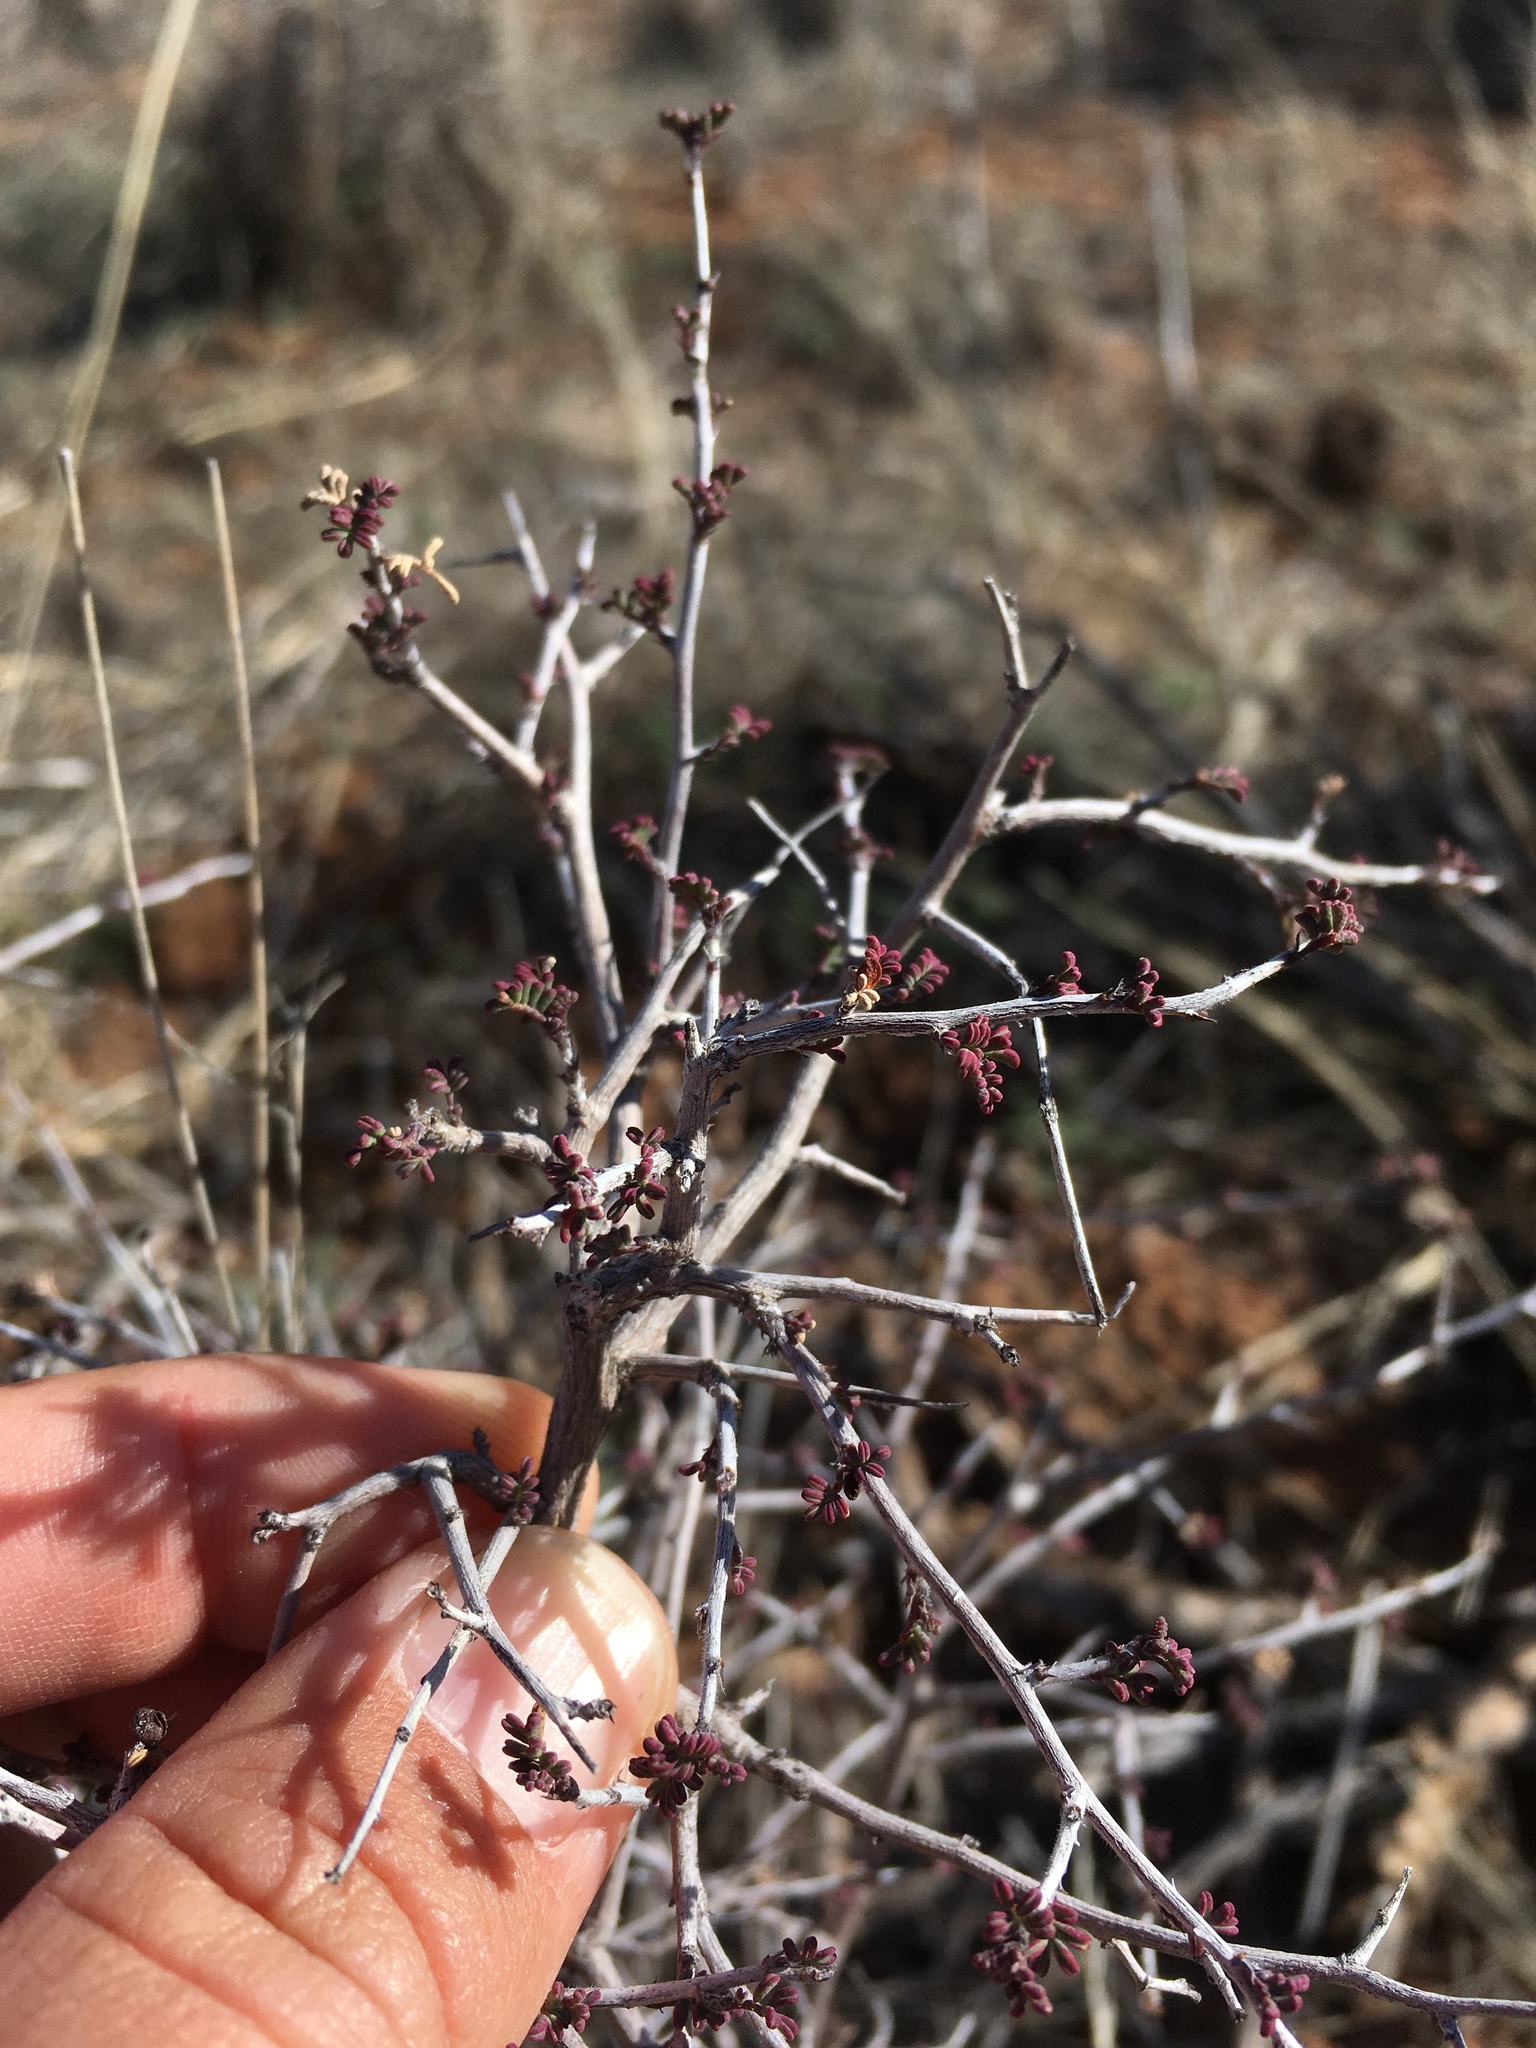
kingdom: Plantae
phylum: Tracheophyta
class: Magnoliopsida
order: Fabales
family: Fabaceae
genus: Dalea
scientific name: Dalea formosa
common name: Feather-plume dalea
